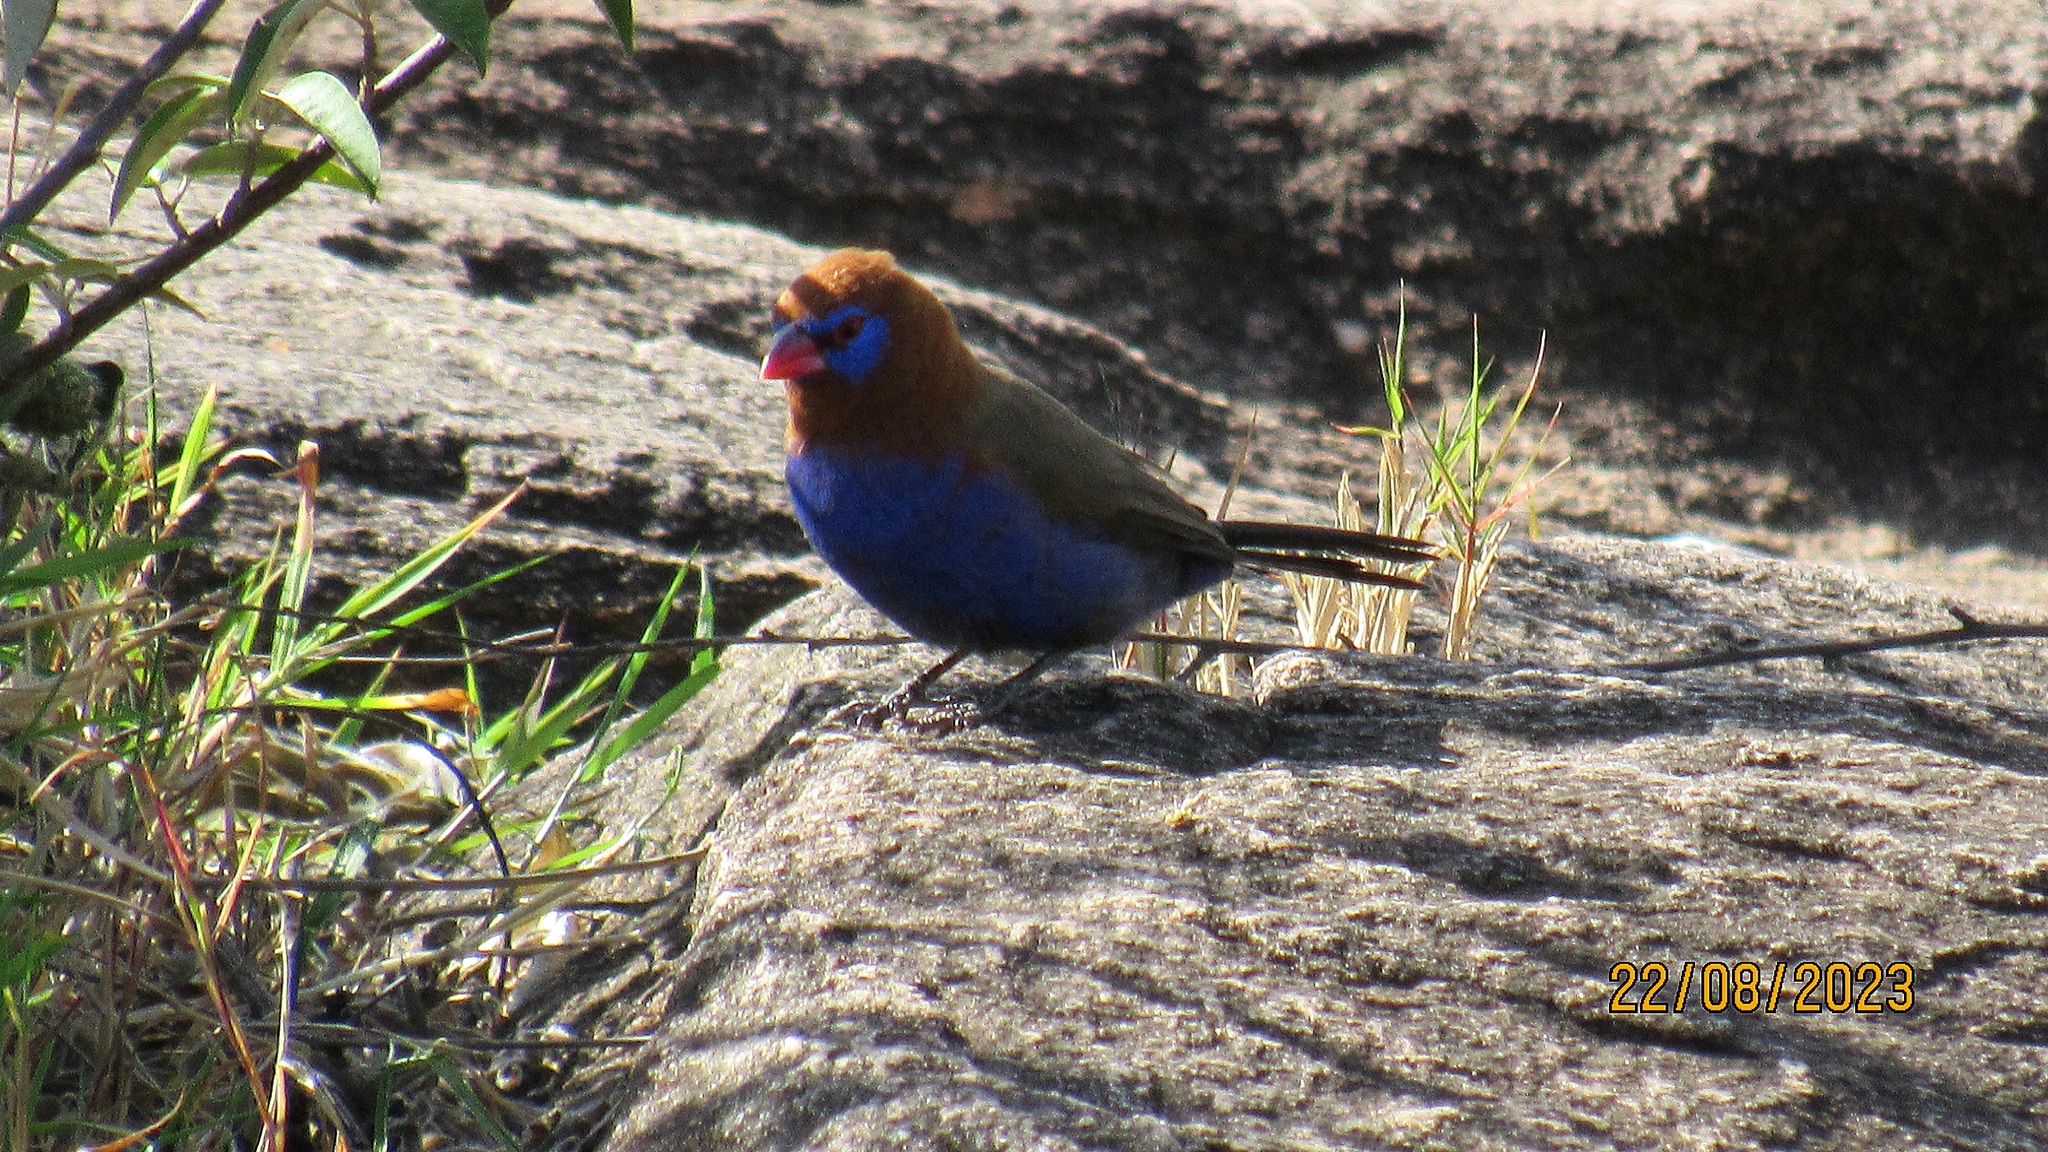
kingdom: Animalia
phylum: Chordata
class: Aves
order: Passeriformes
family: Estrildidae
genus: Uraeginthus
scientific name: Uraeginthus ianthinogaster
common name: Purple grenadier
